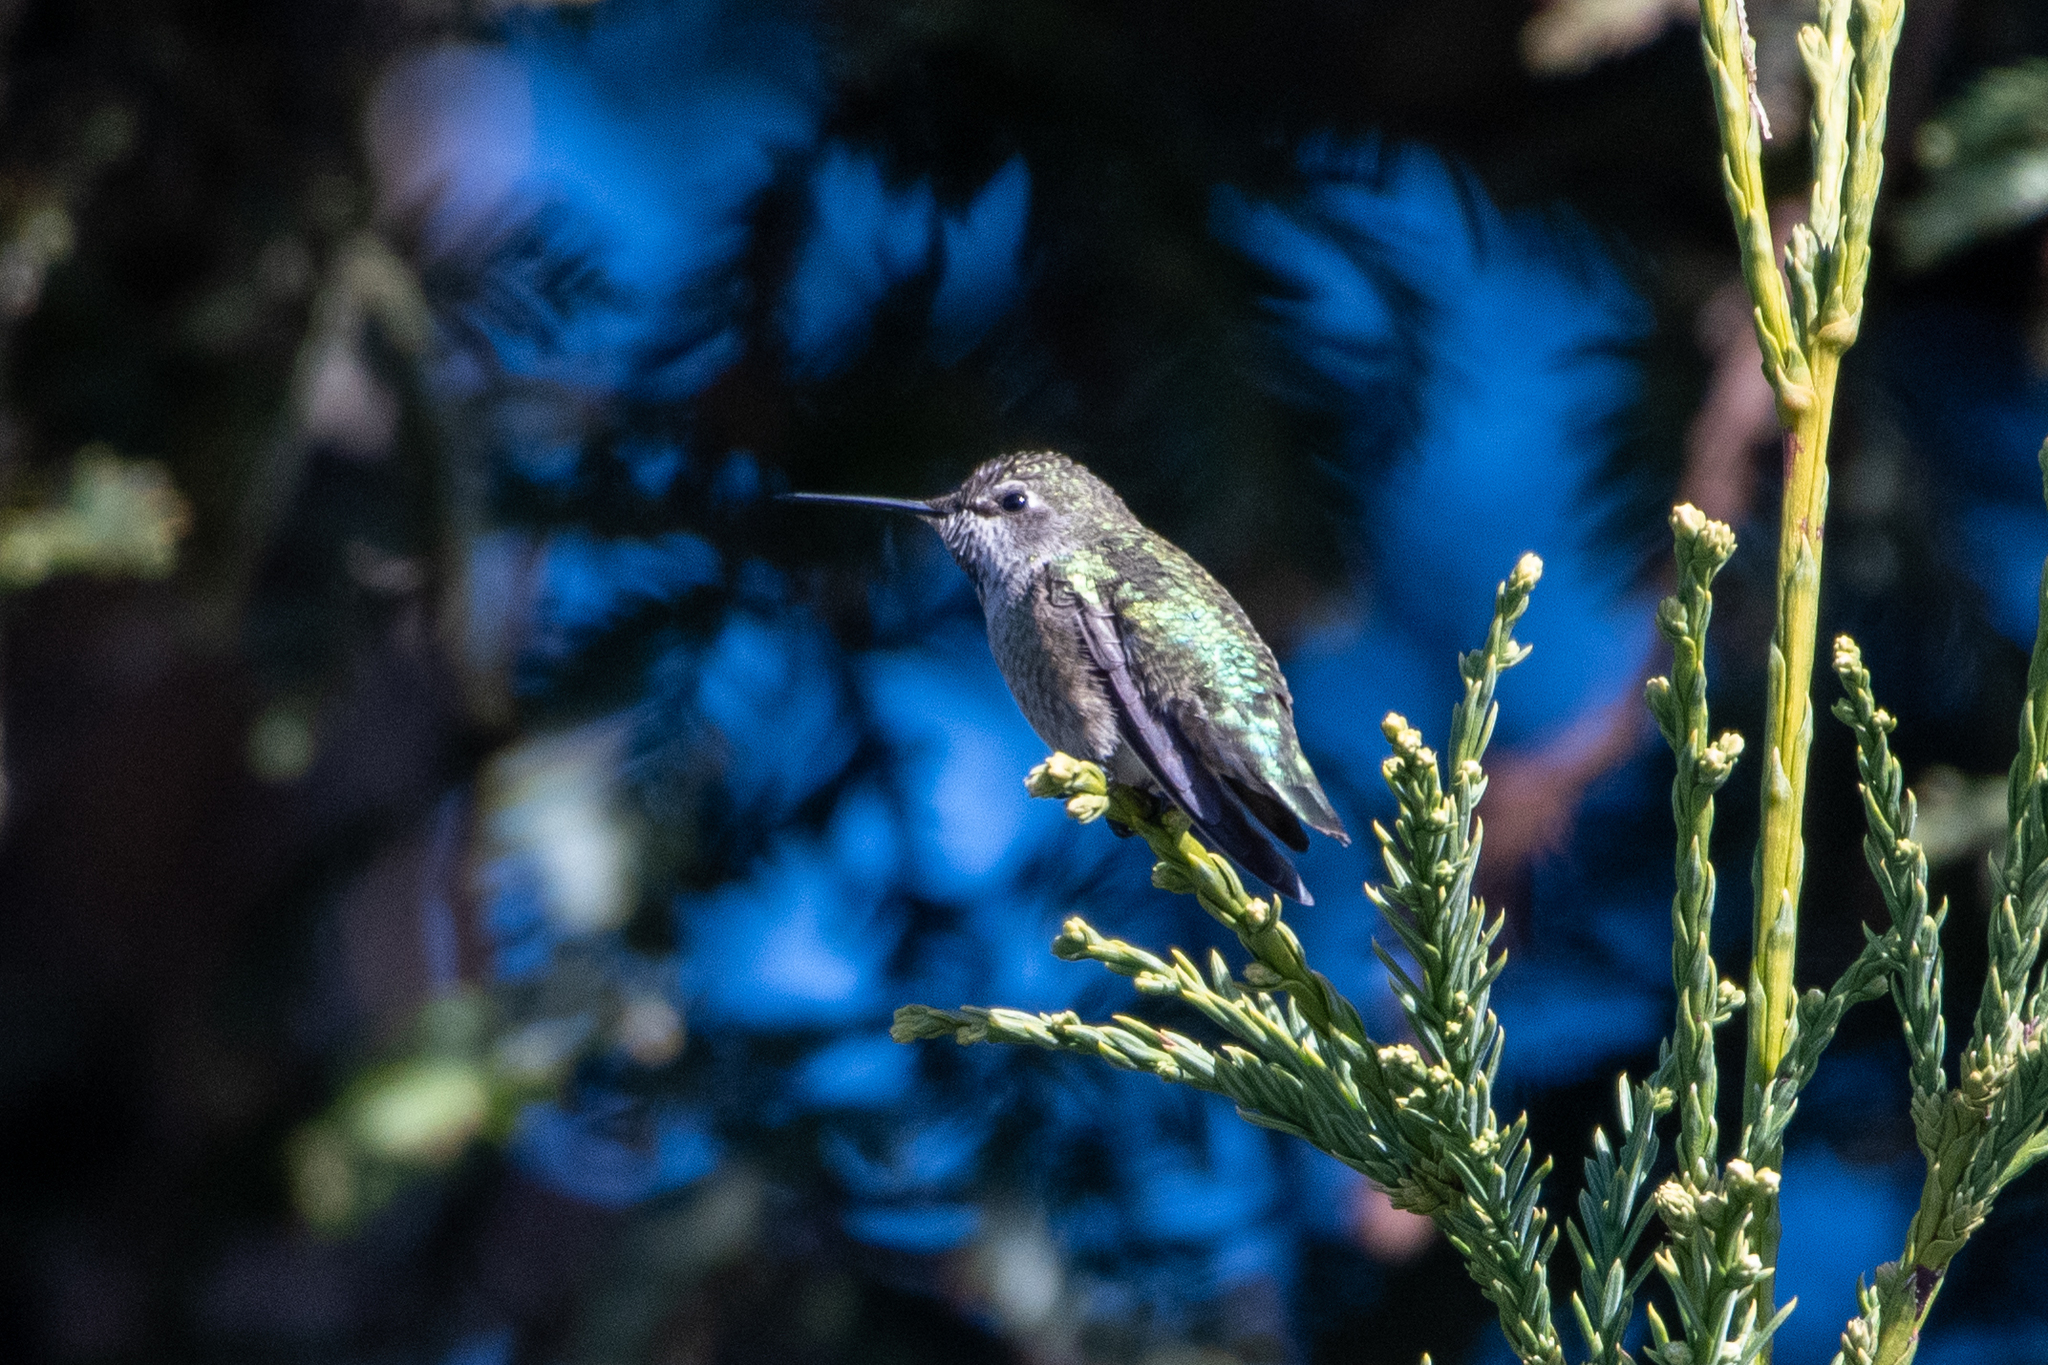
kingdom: Animalia
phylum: Chordata
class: Aves
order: Apodiformes
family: Trochilidae
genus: Calypte
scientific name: Calypte anna
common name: Anna's hummingbird
